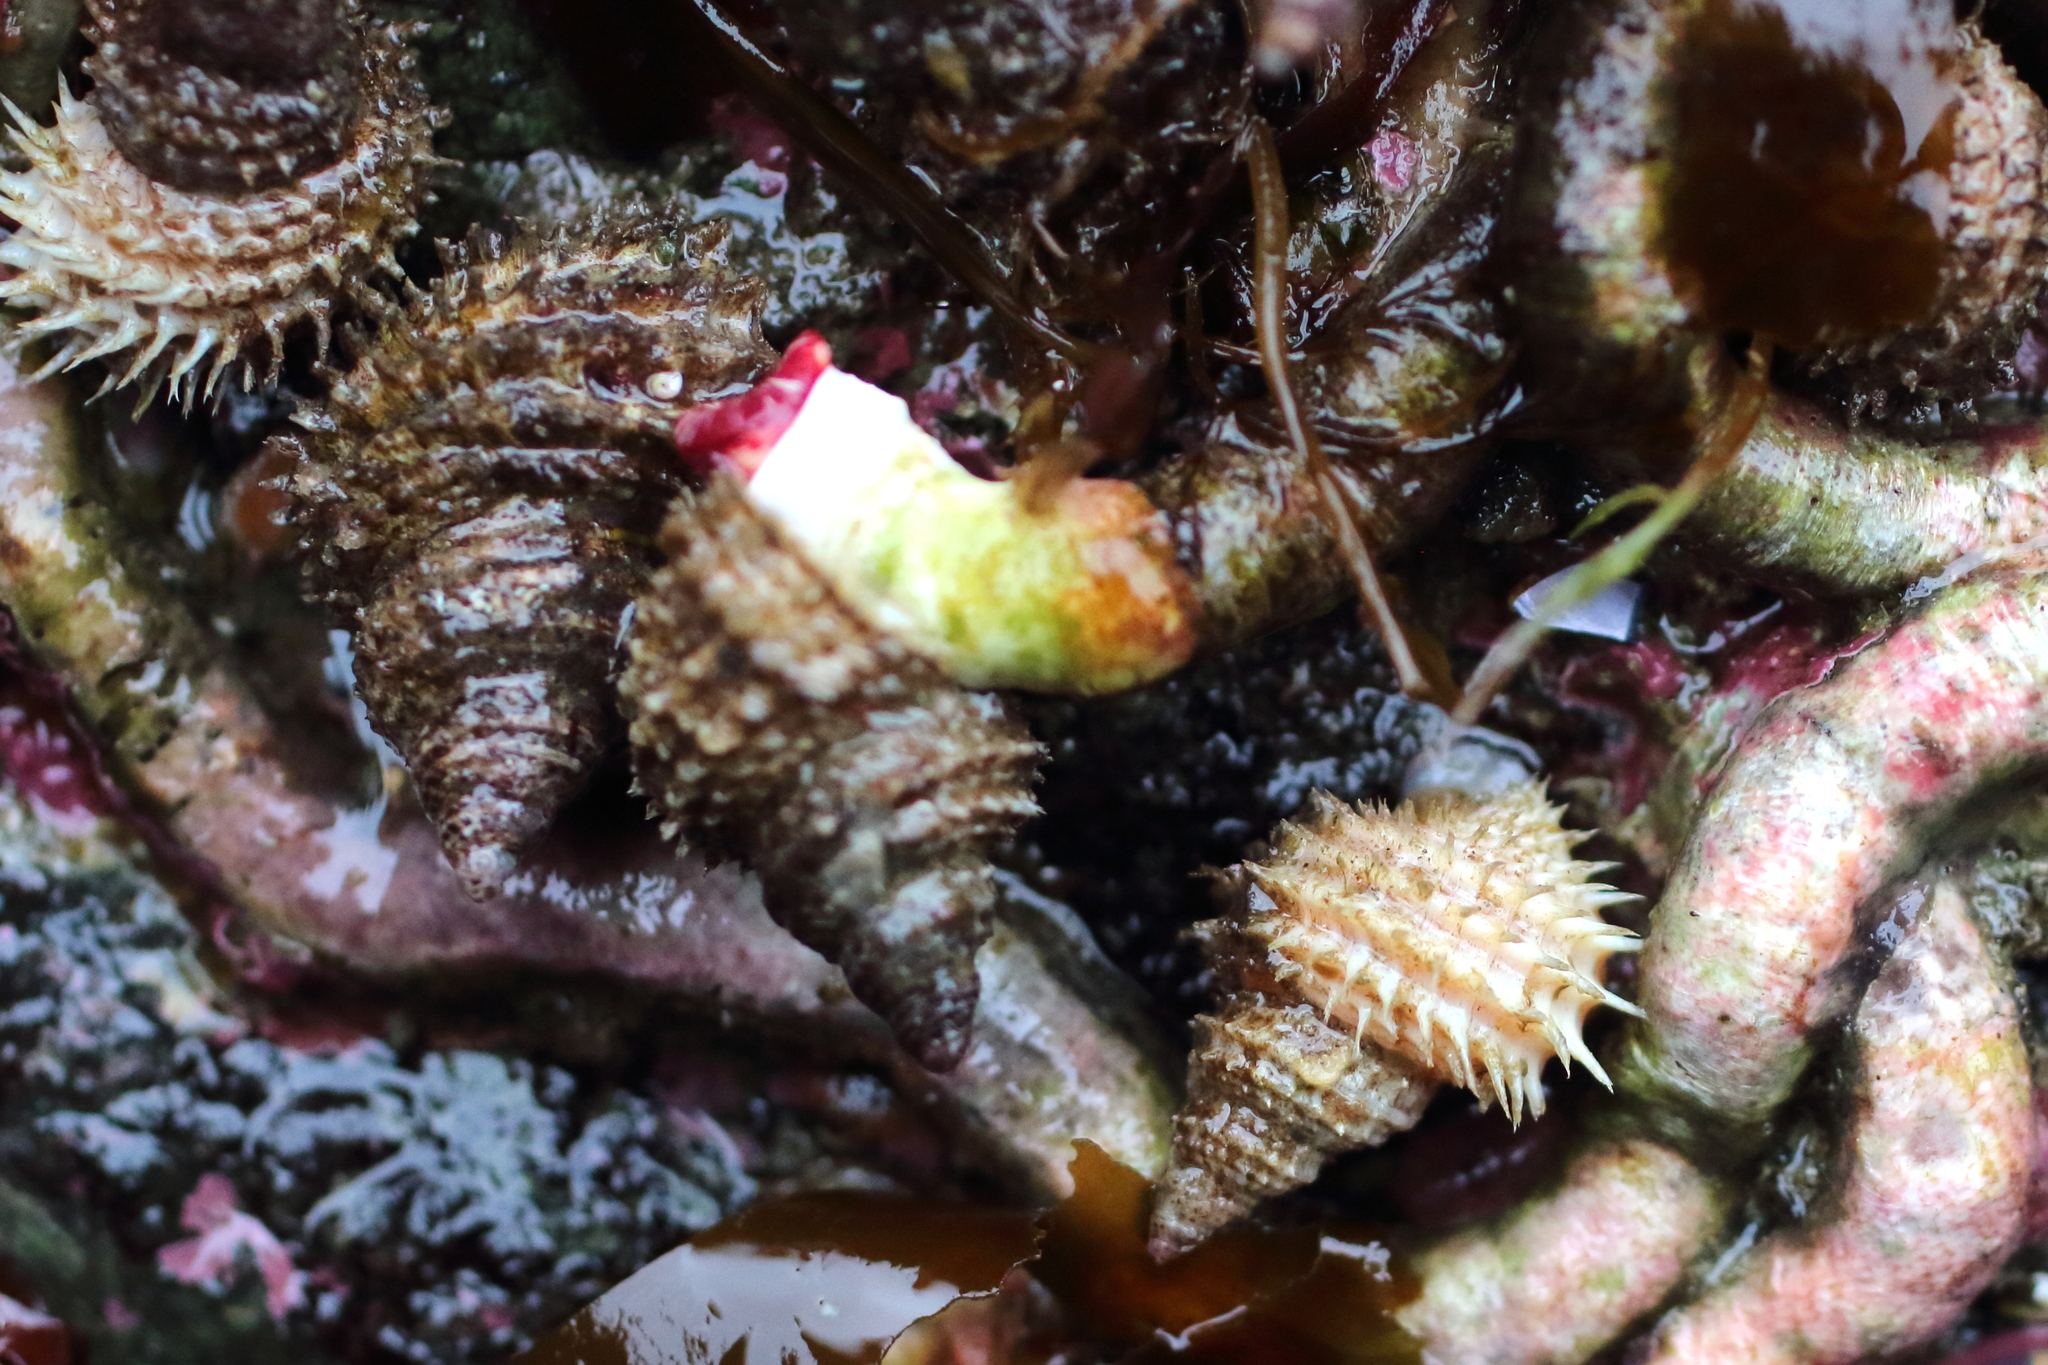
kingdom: Animalia
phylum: Mollusca
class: Gastropoda
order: Littorinimorpha
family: Capulidae
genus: Trichotropis
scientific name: Trichotropis cancellata
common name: Cancellate hairysnail
